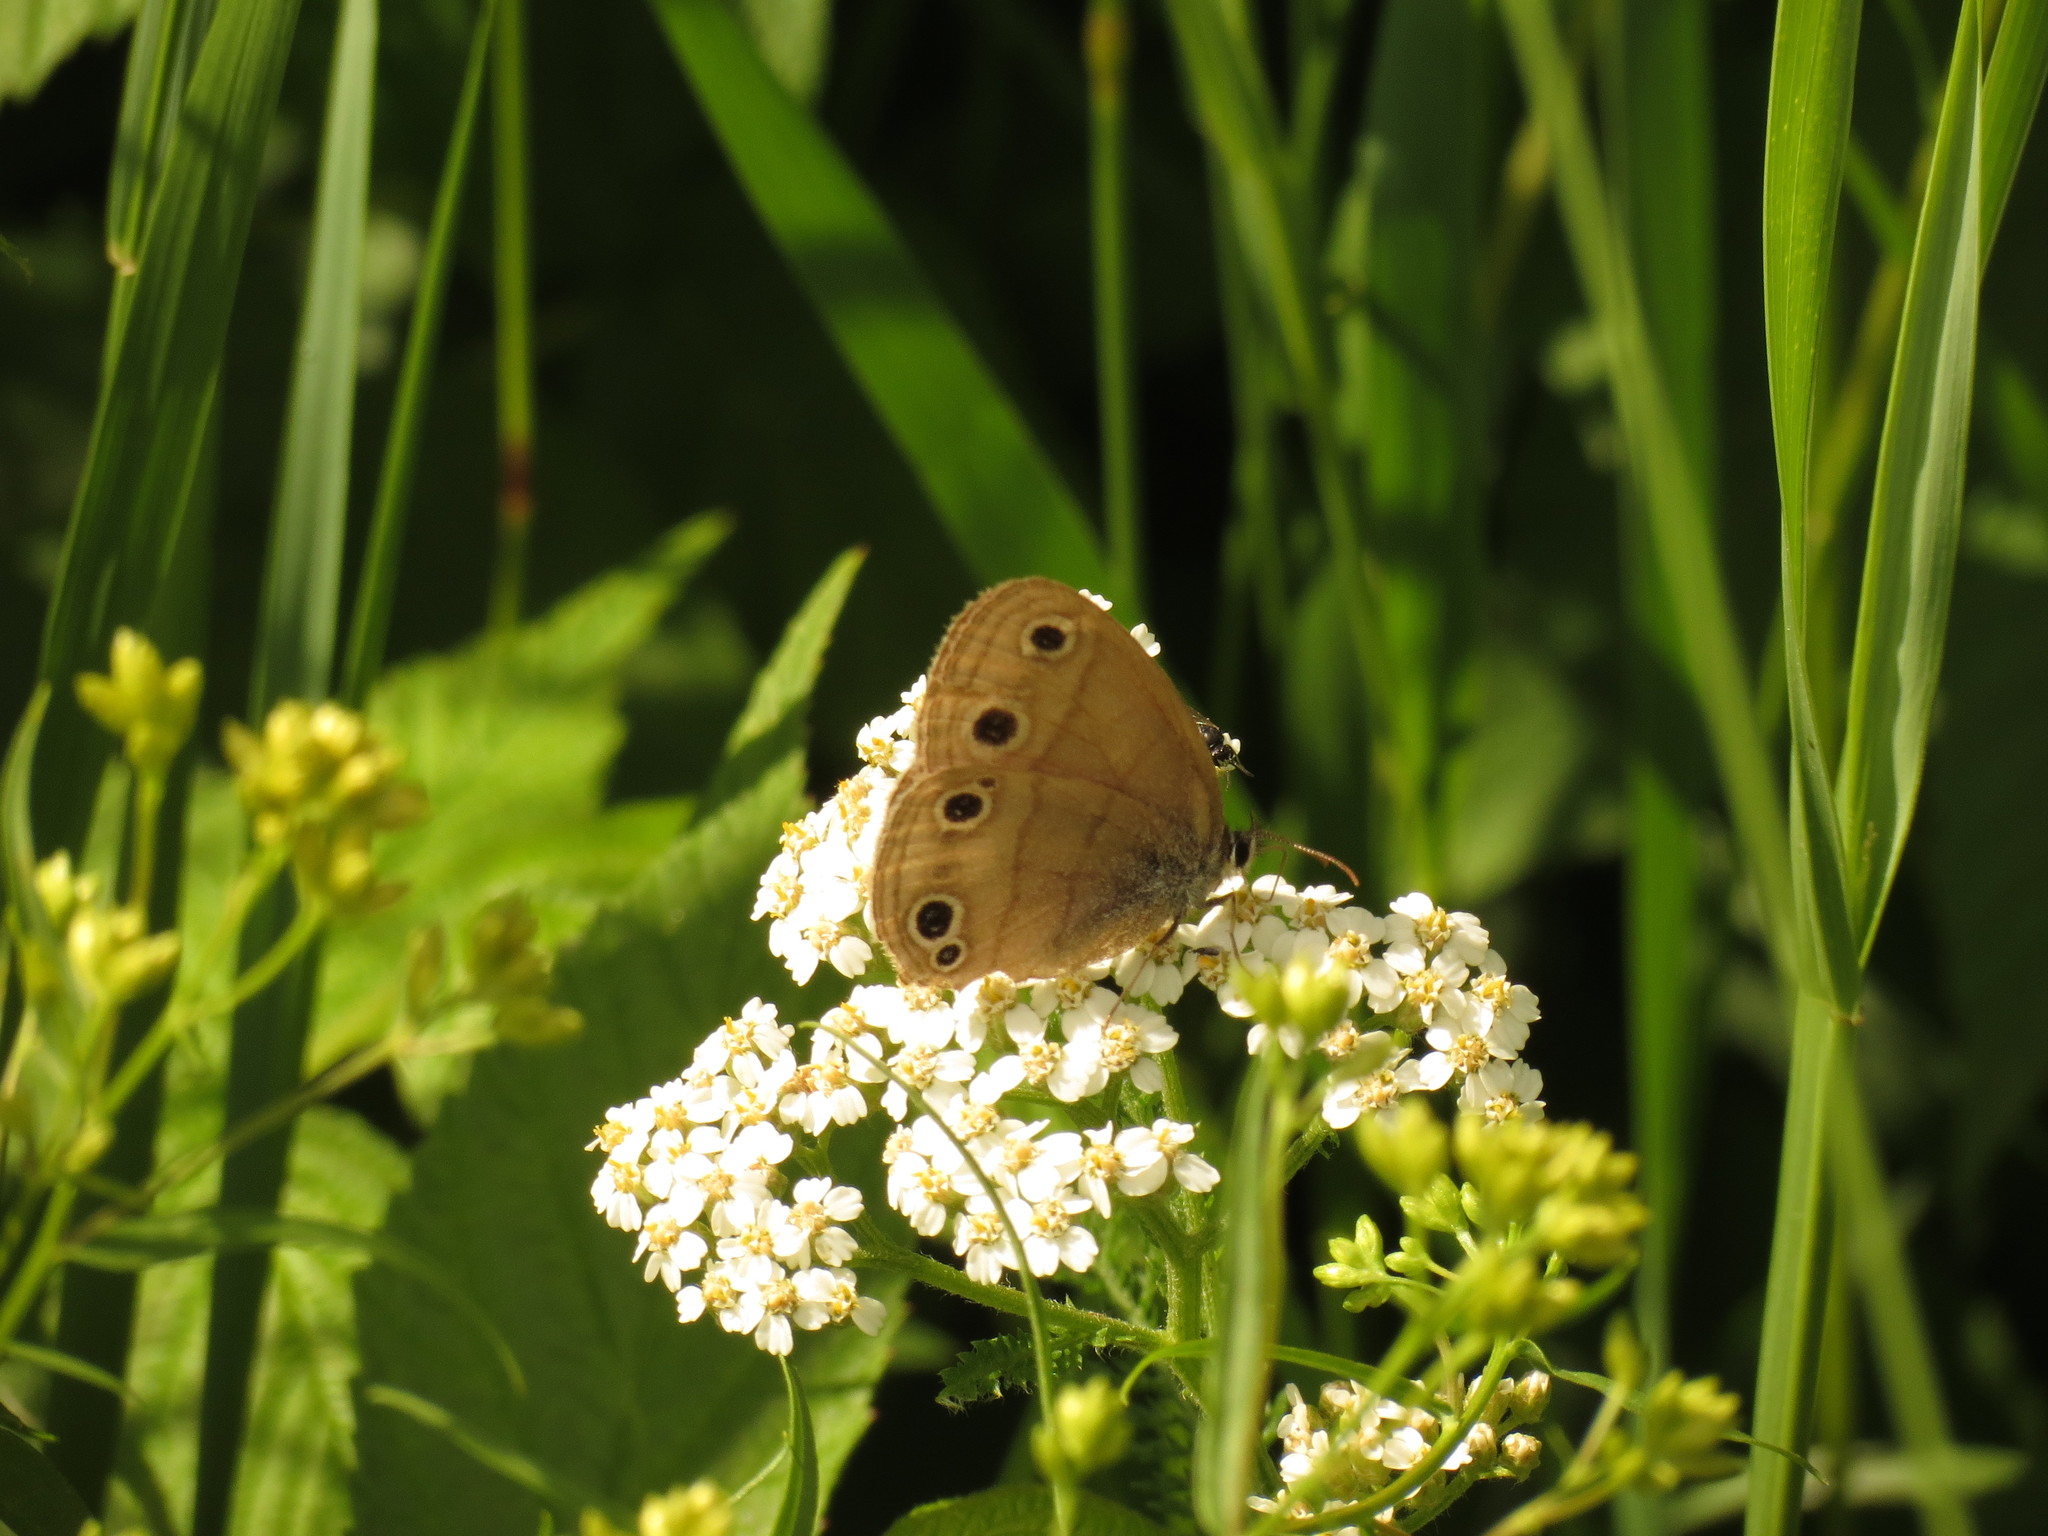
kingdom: Animalia
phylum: Arthropoda
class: Insecta
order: Lepidoptera
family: Nymphalidae
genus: Euptychia
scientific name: Euptychia cymela
